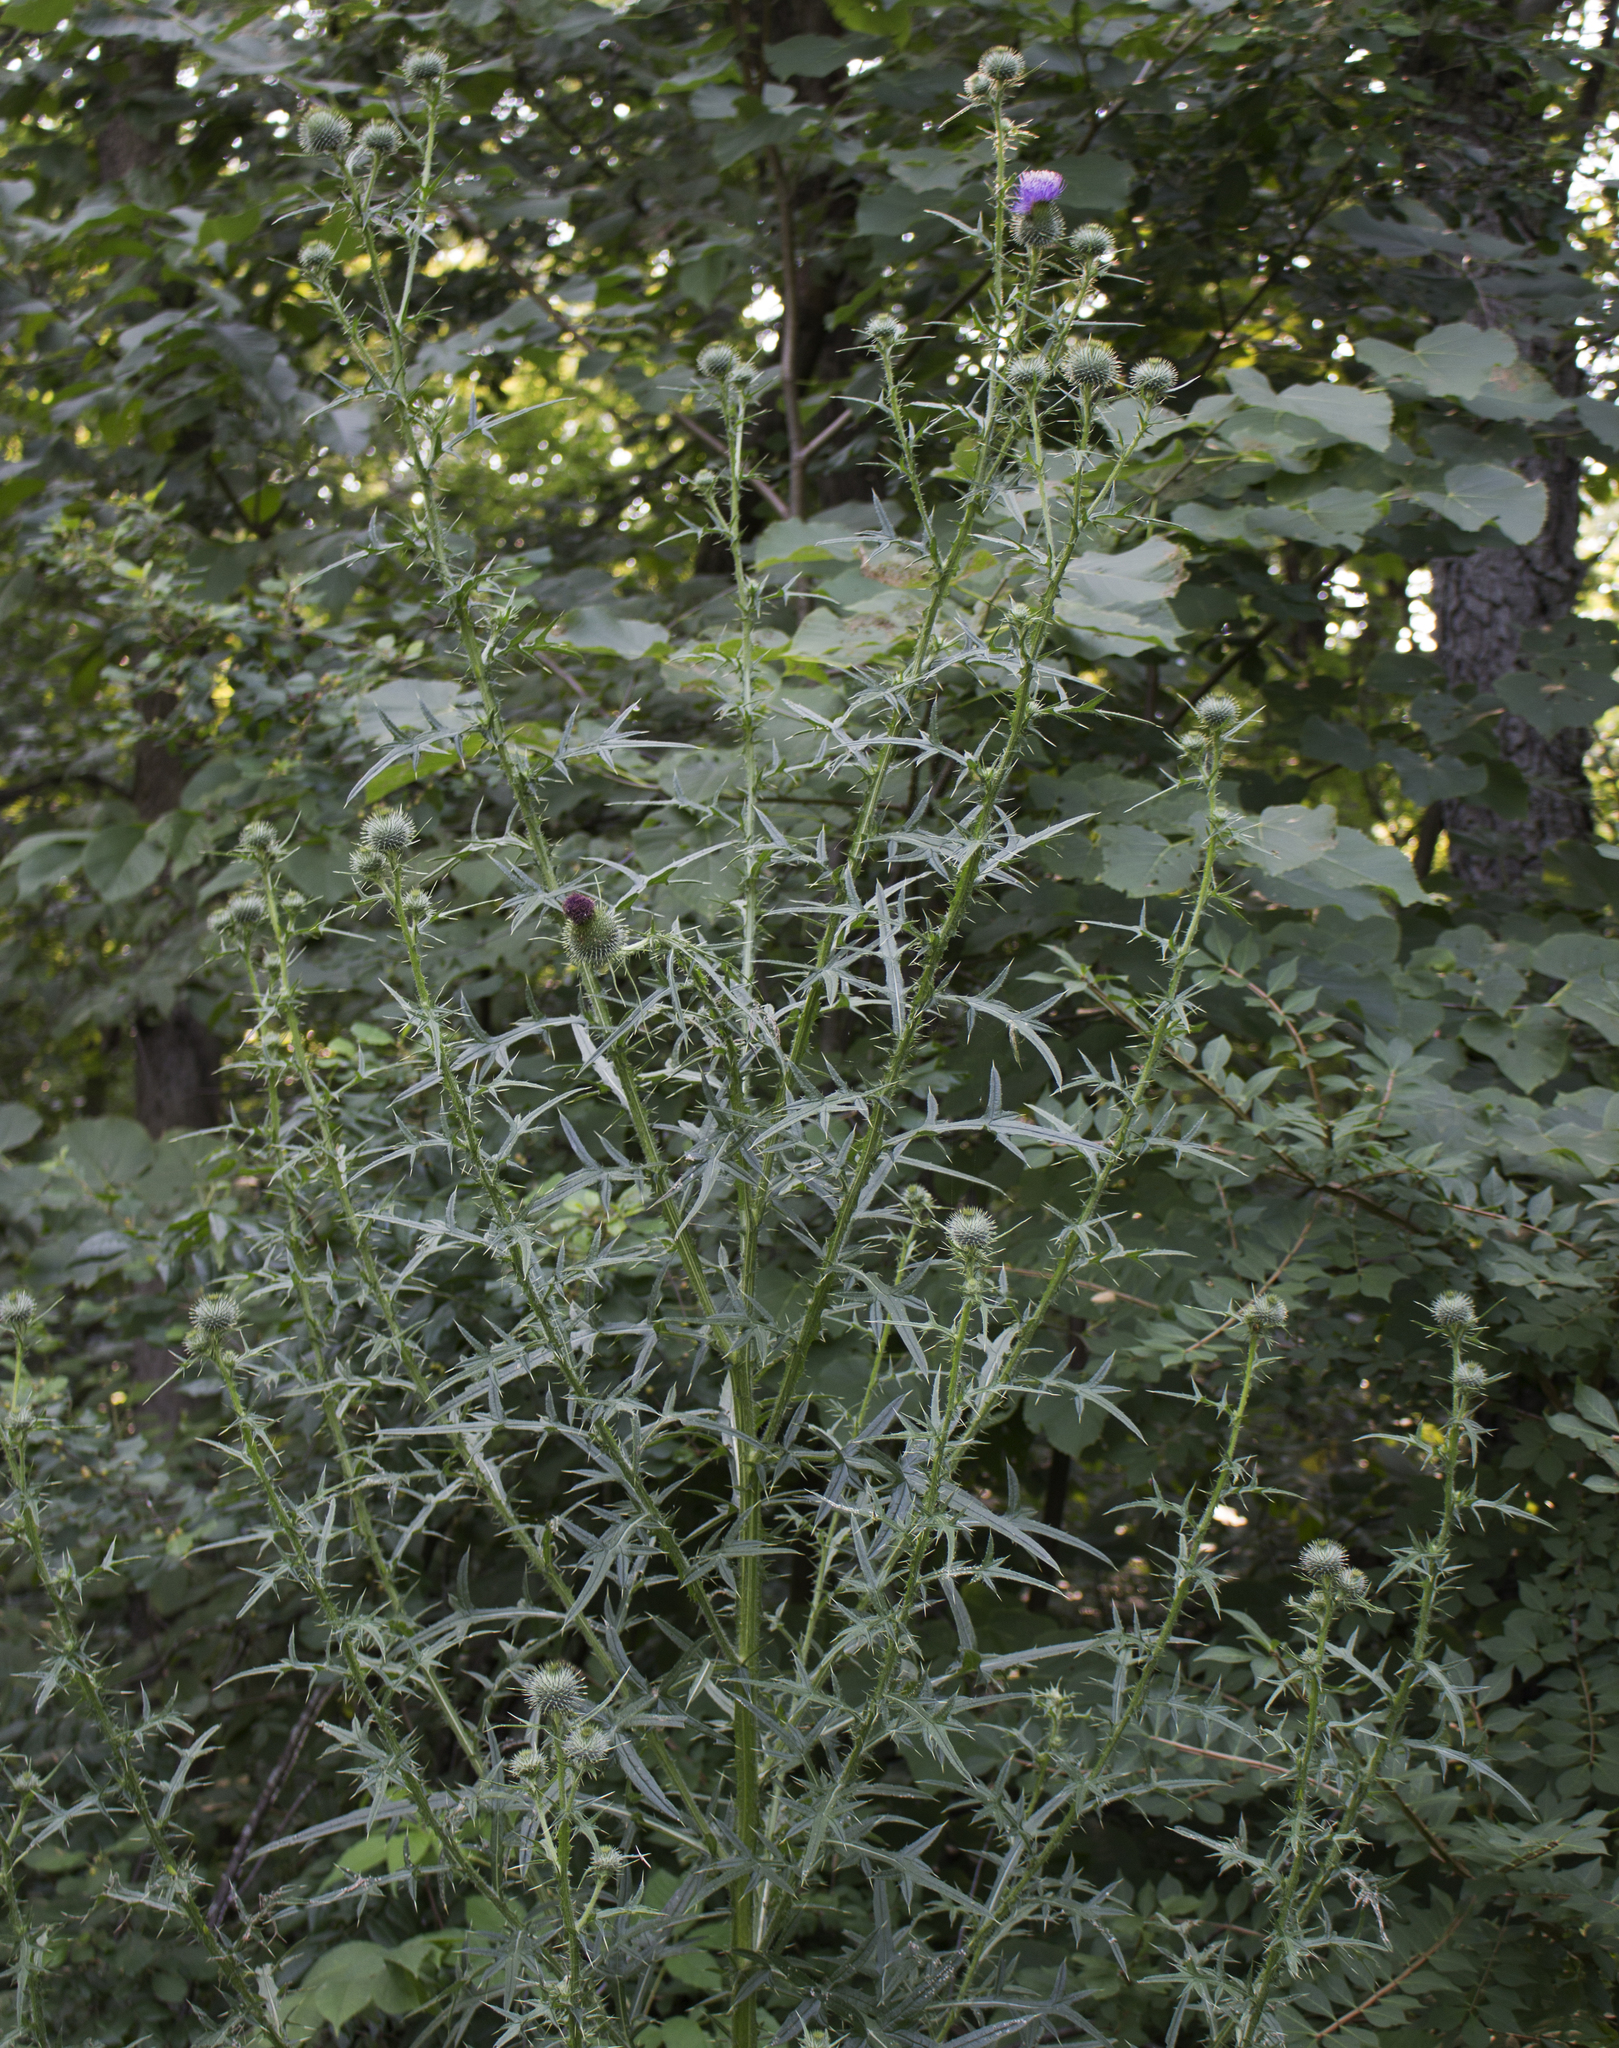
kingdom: Plantae
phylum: Tracheophyta
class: Magnoliopsida
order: Asterales
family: Asteraceae
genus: Cirsium
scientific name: Cirsium vulgare
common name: Bull thistle
